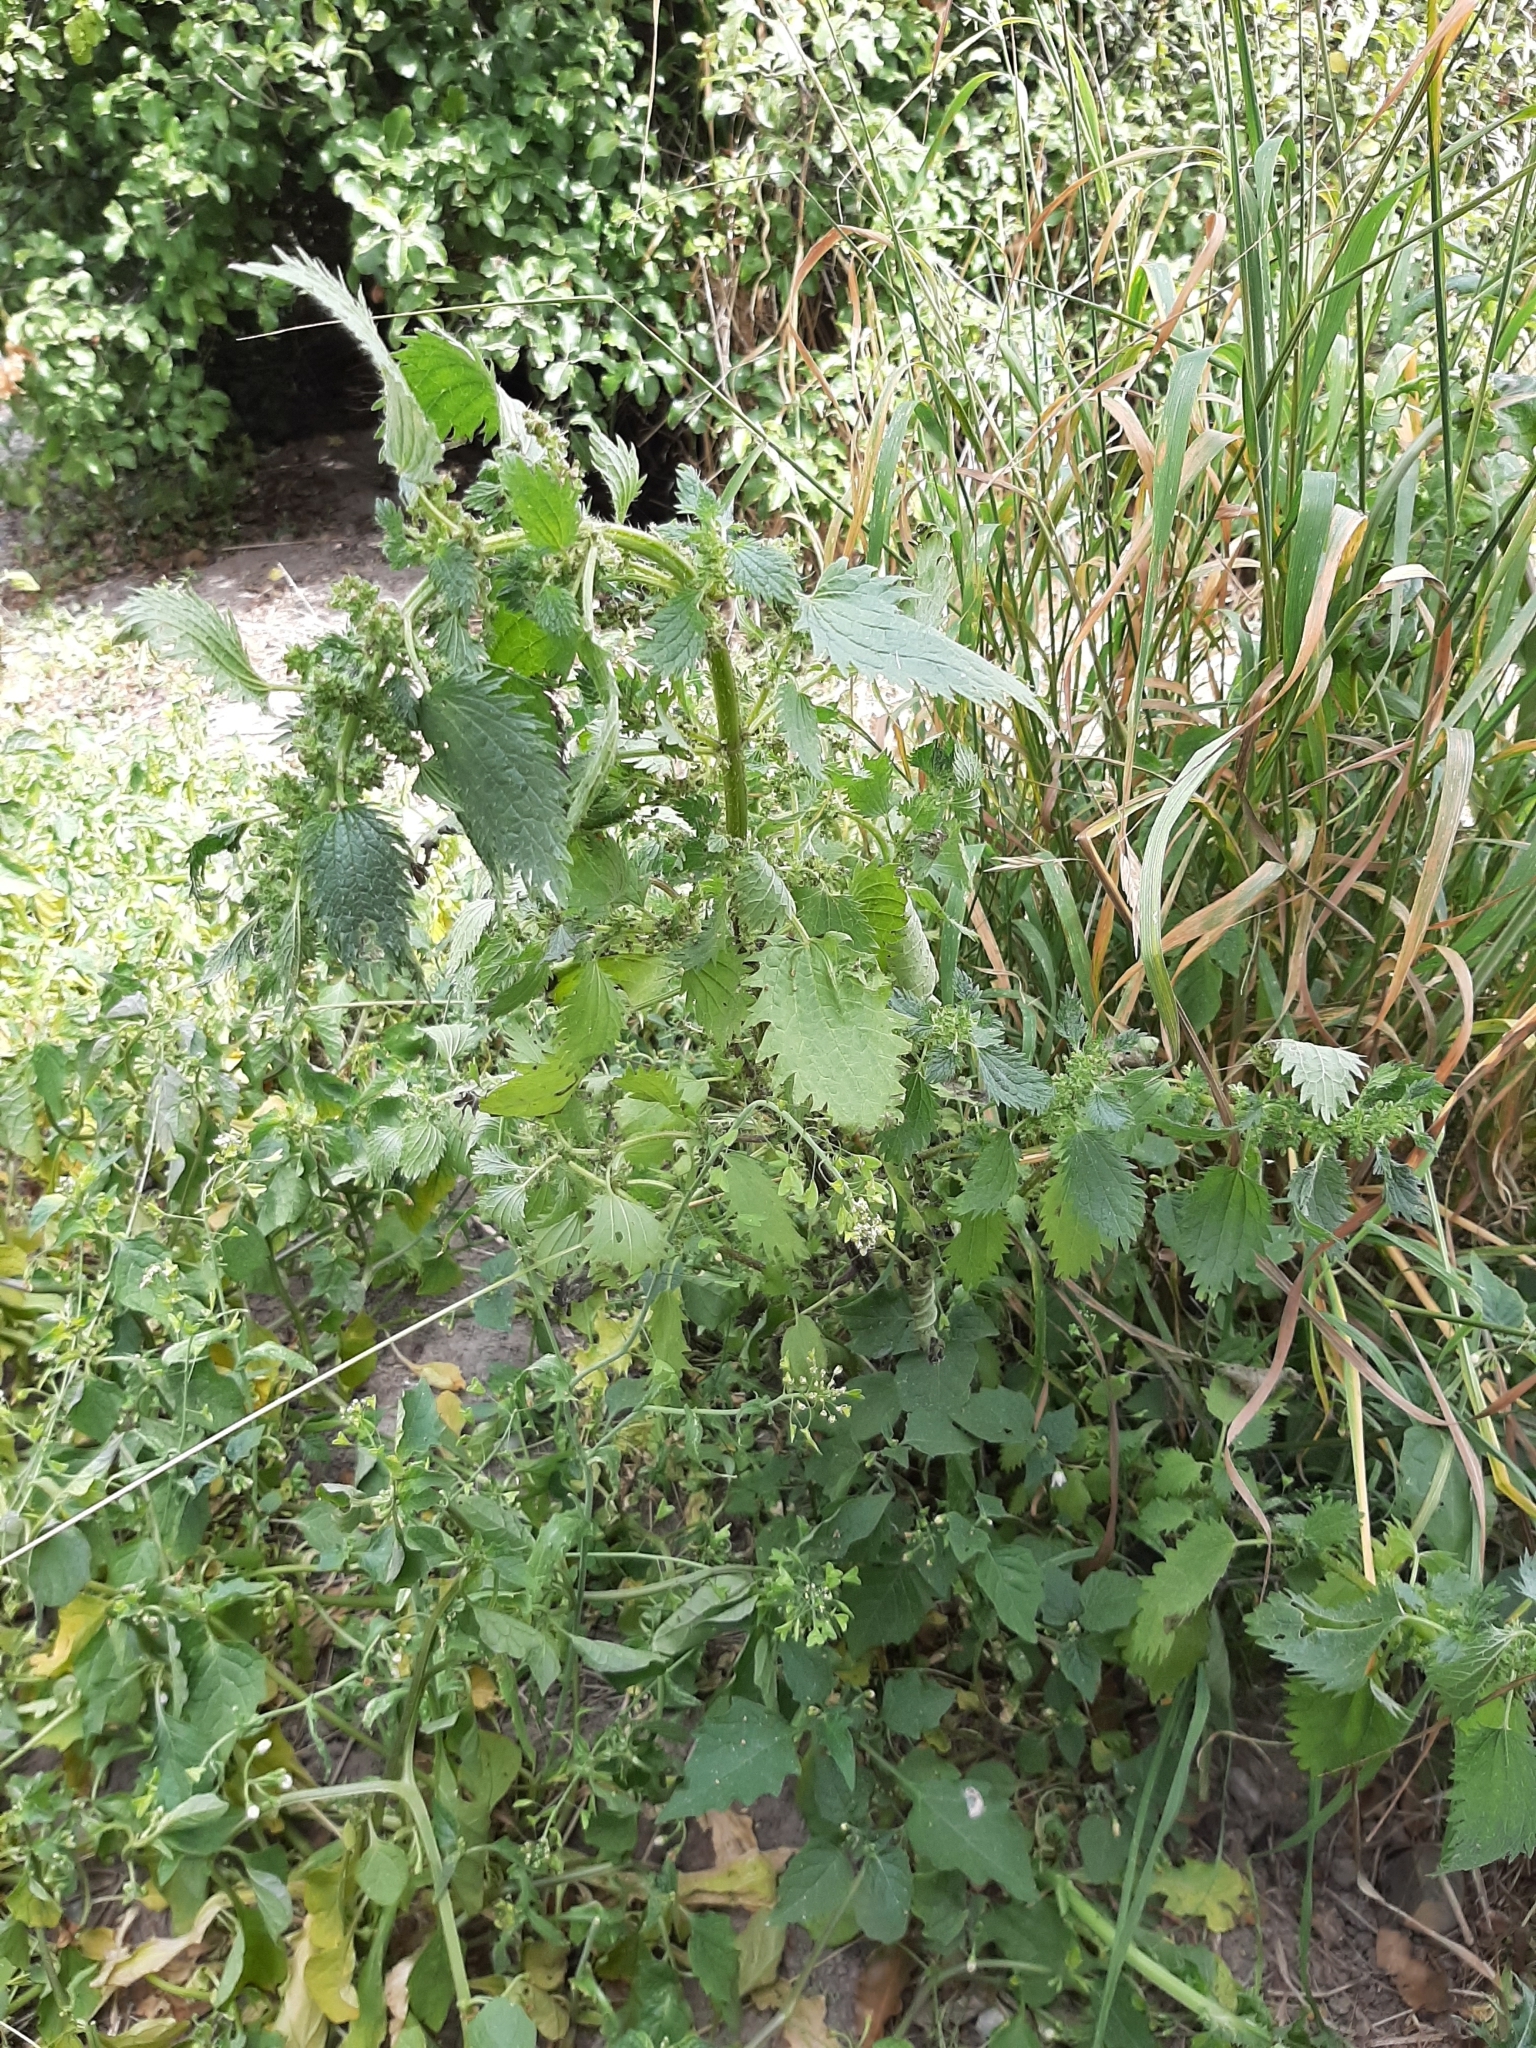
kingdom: Plantae
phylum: Tracheophyta
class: Magnoliopsida
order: Rosales
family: Urticaceae
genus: Urtica
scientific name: Urtica urens
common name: Dwarf nettle
